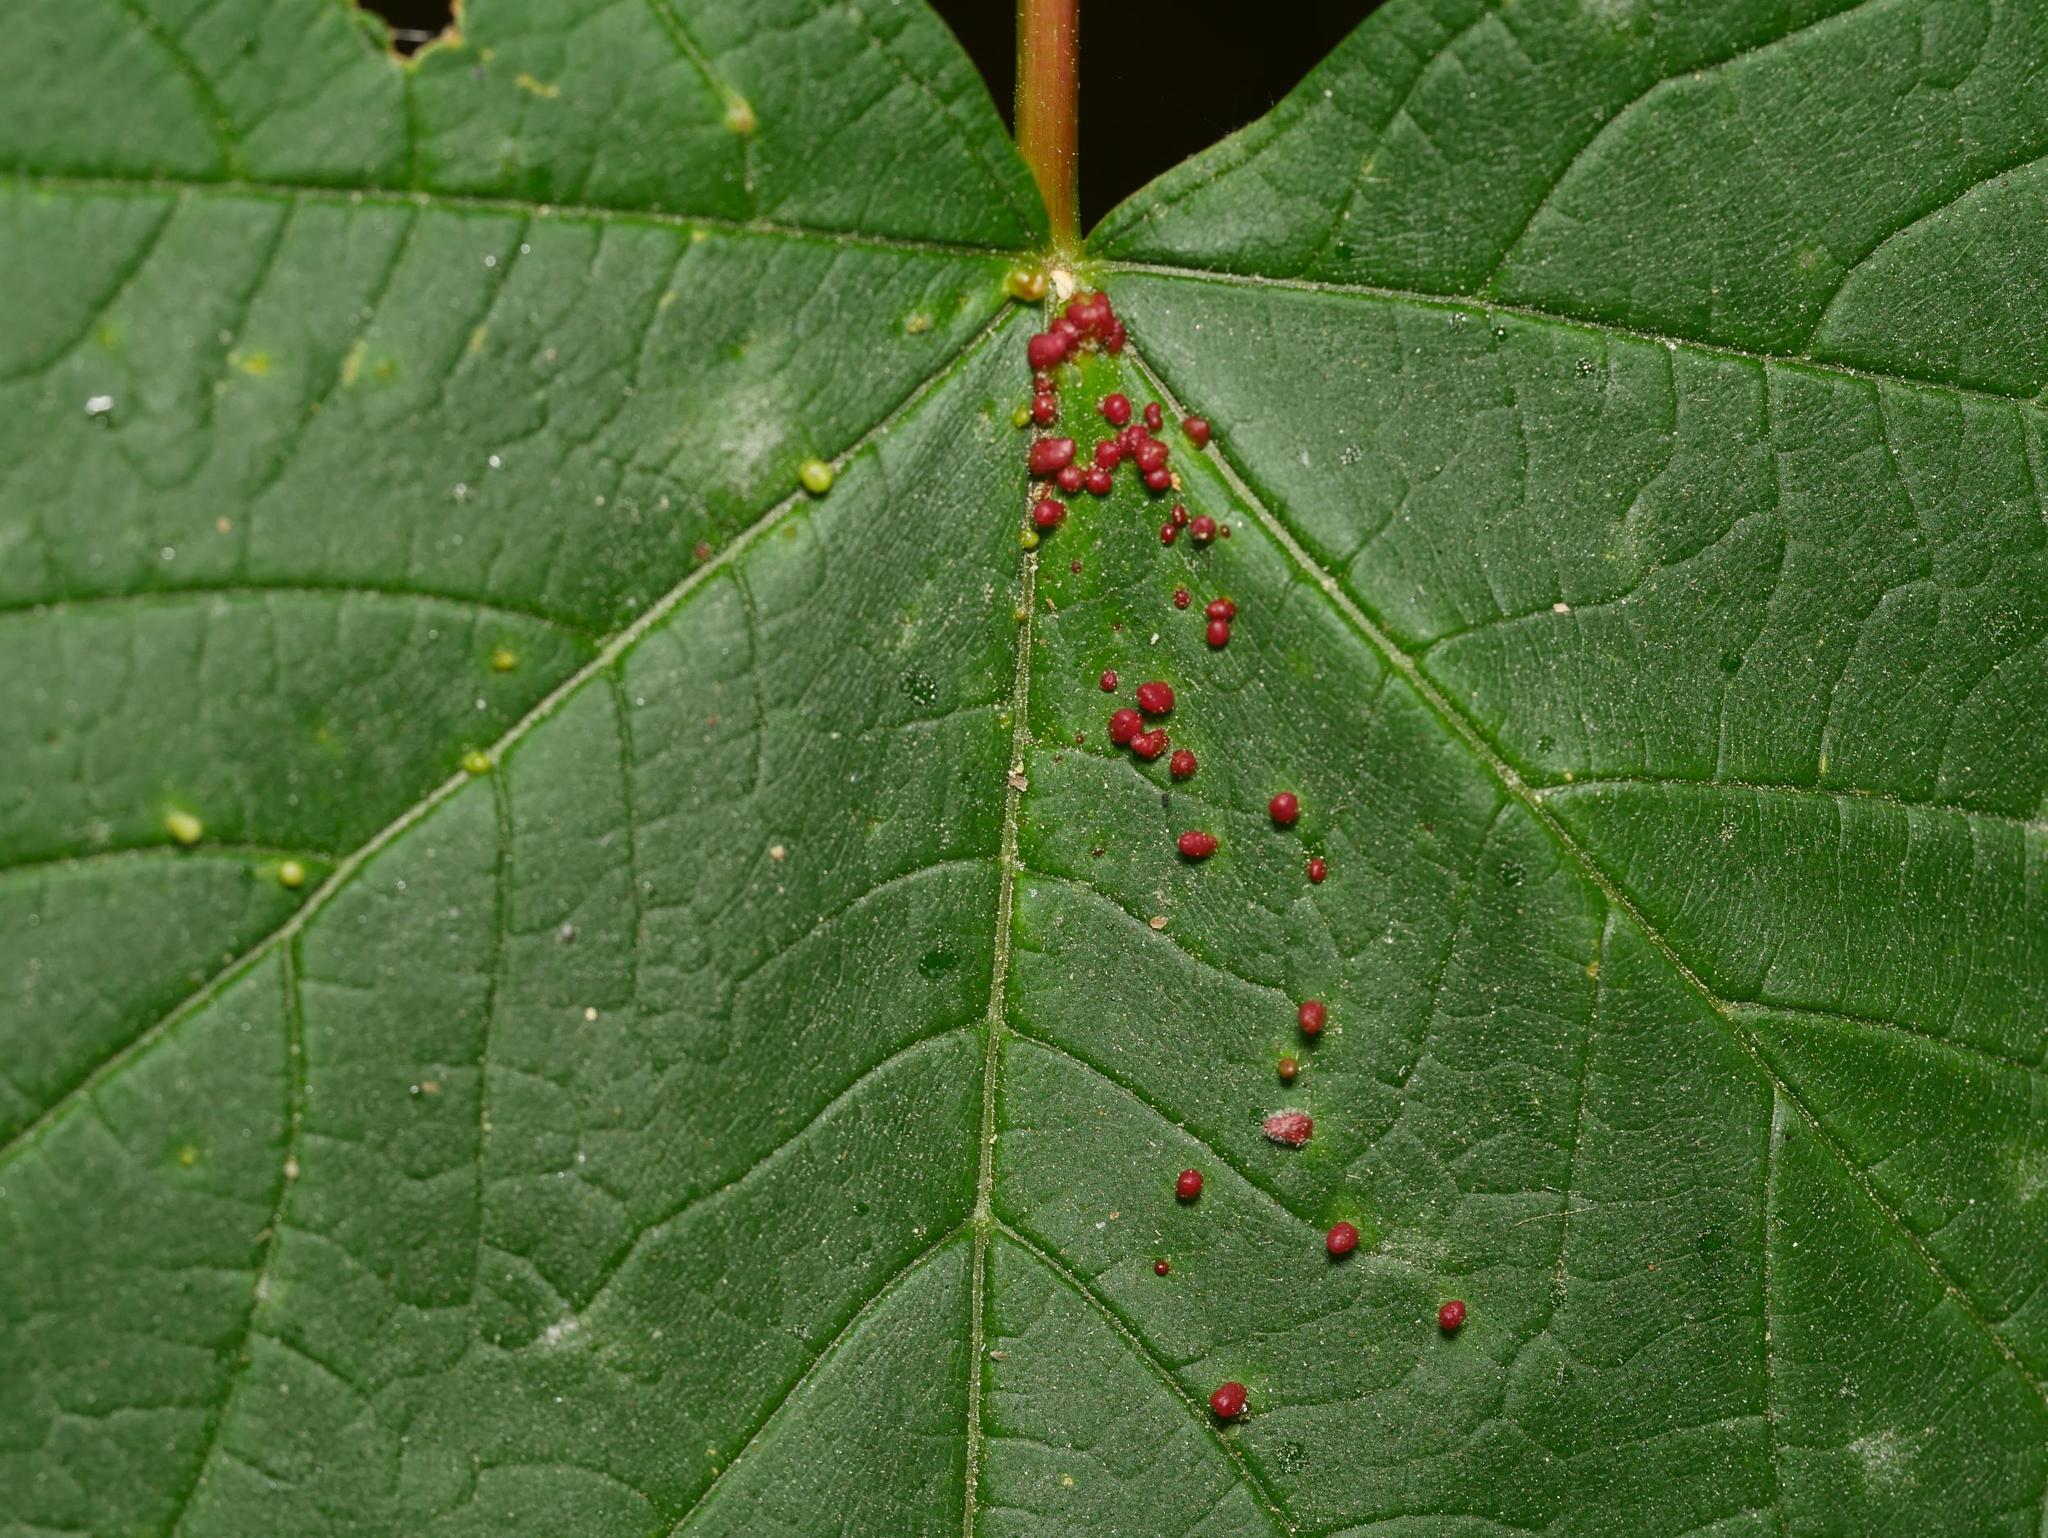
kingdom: Animalia
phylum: Arthropoda
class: Arachnida
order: Trombidiformes
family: Eriophyidae
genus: Aceria
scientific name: Aceria cephaloneus
